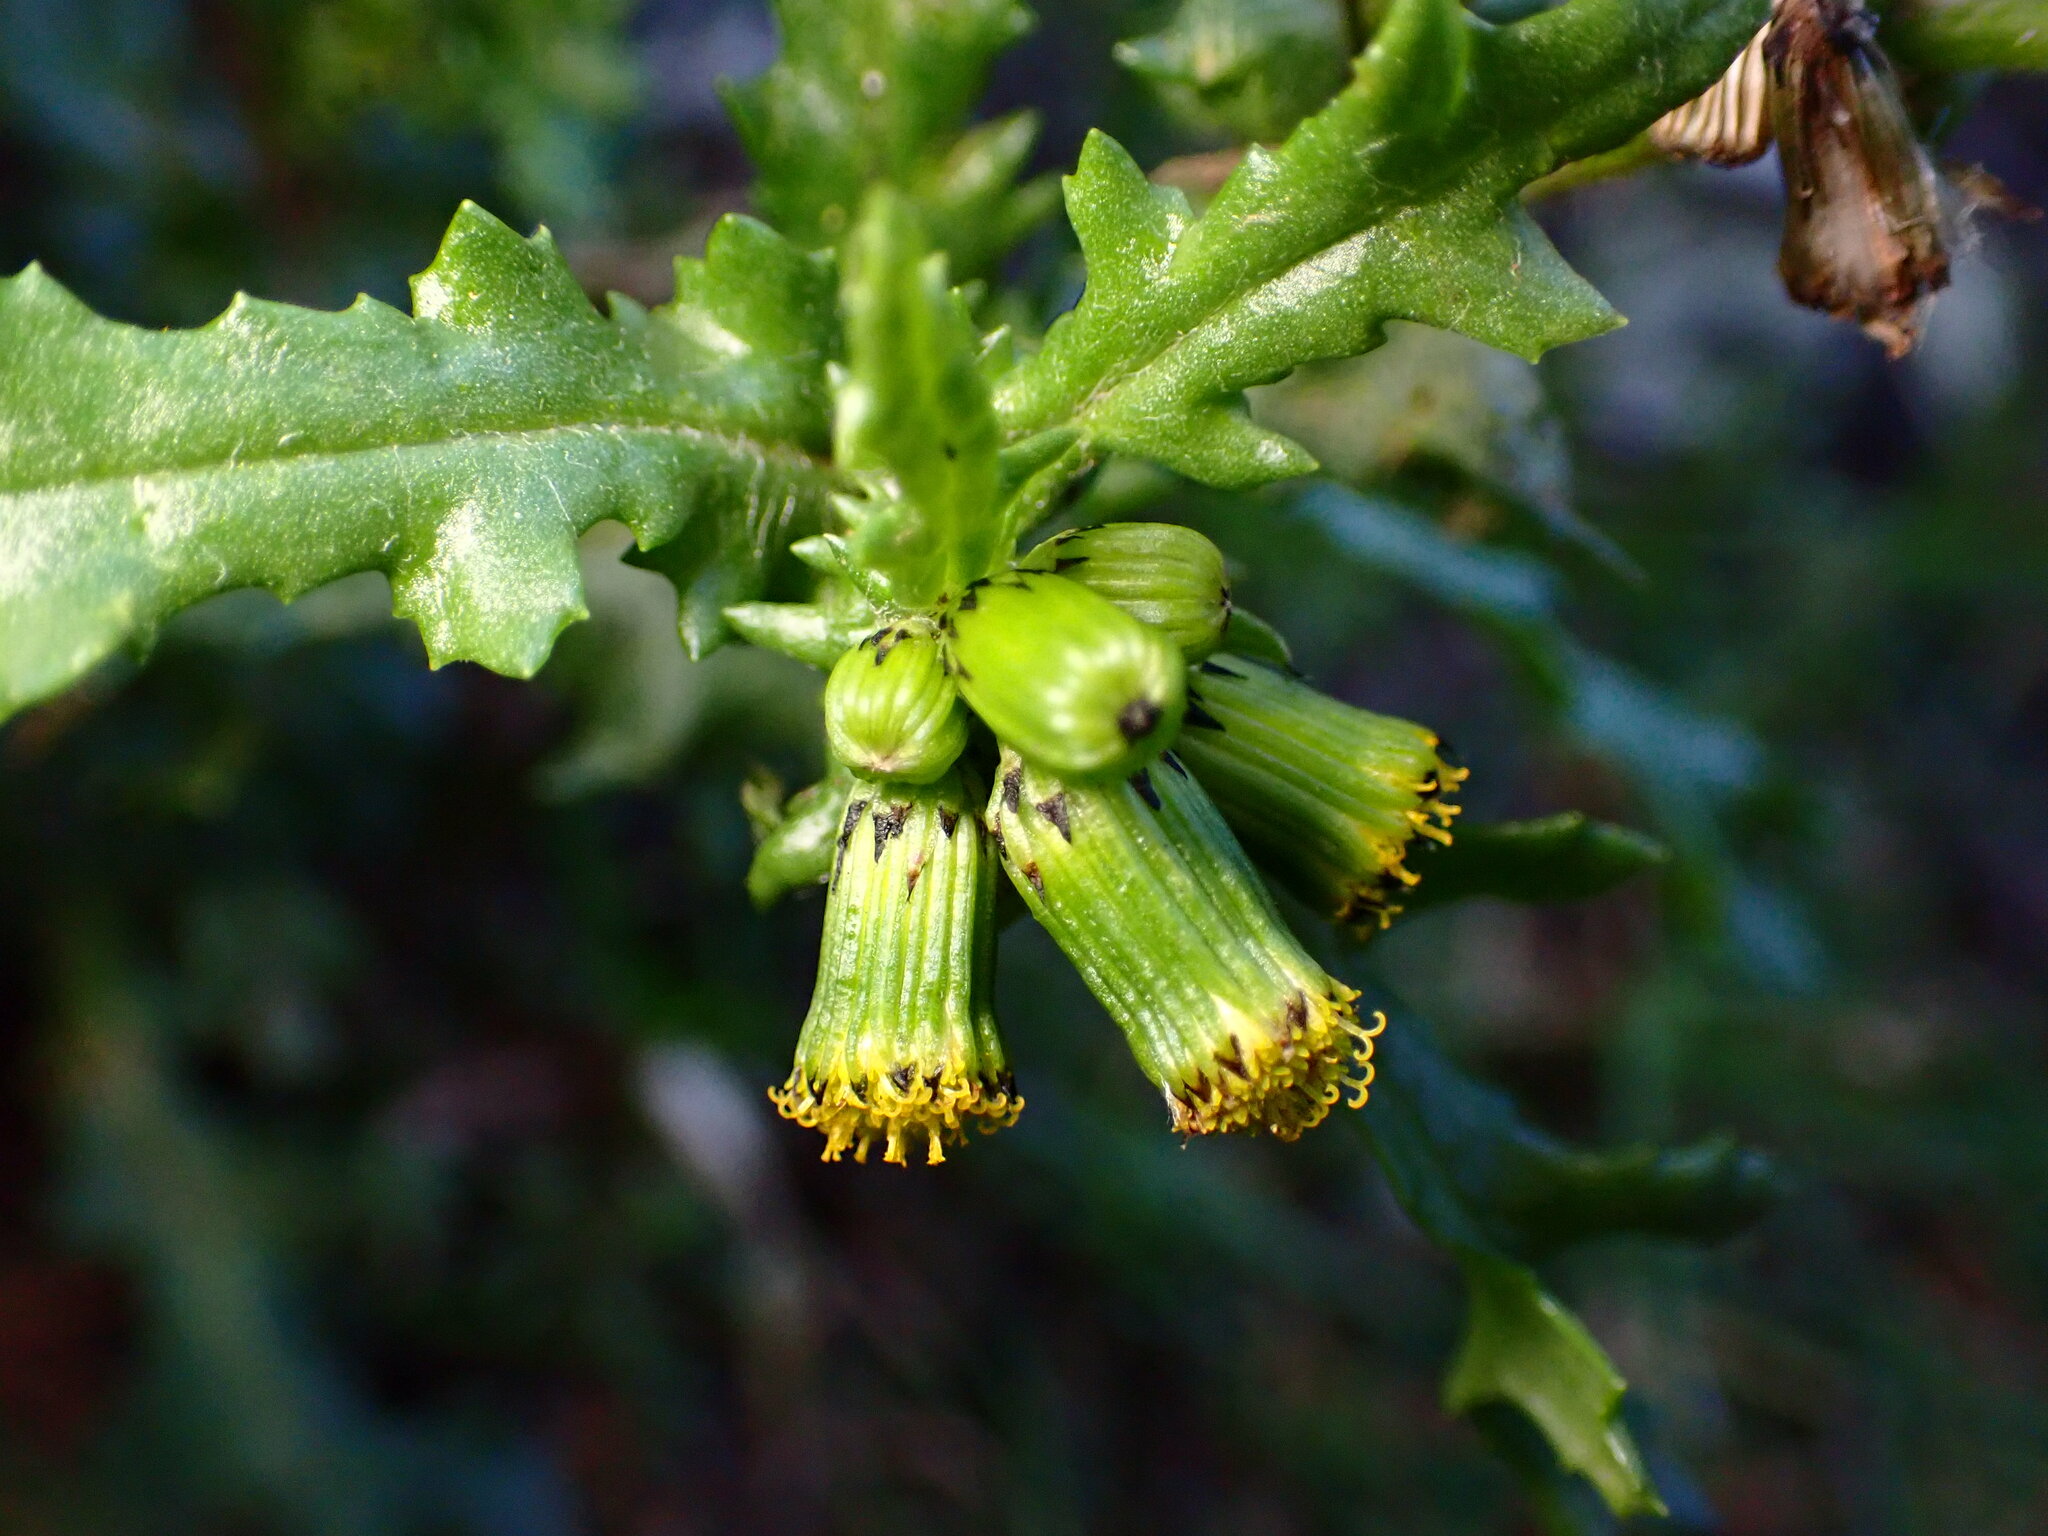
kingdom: Plantae
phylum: Tracheophyta
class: Magnoliopsida
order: Asterales
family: Asteraceae
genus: Senecio
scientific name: Senecio vulgaris
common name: Old-man-in-the-spring
